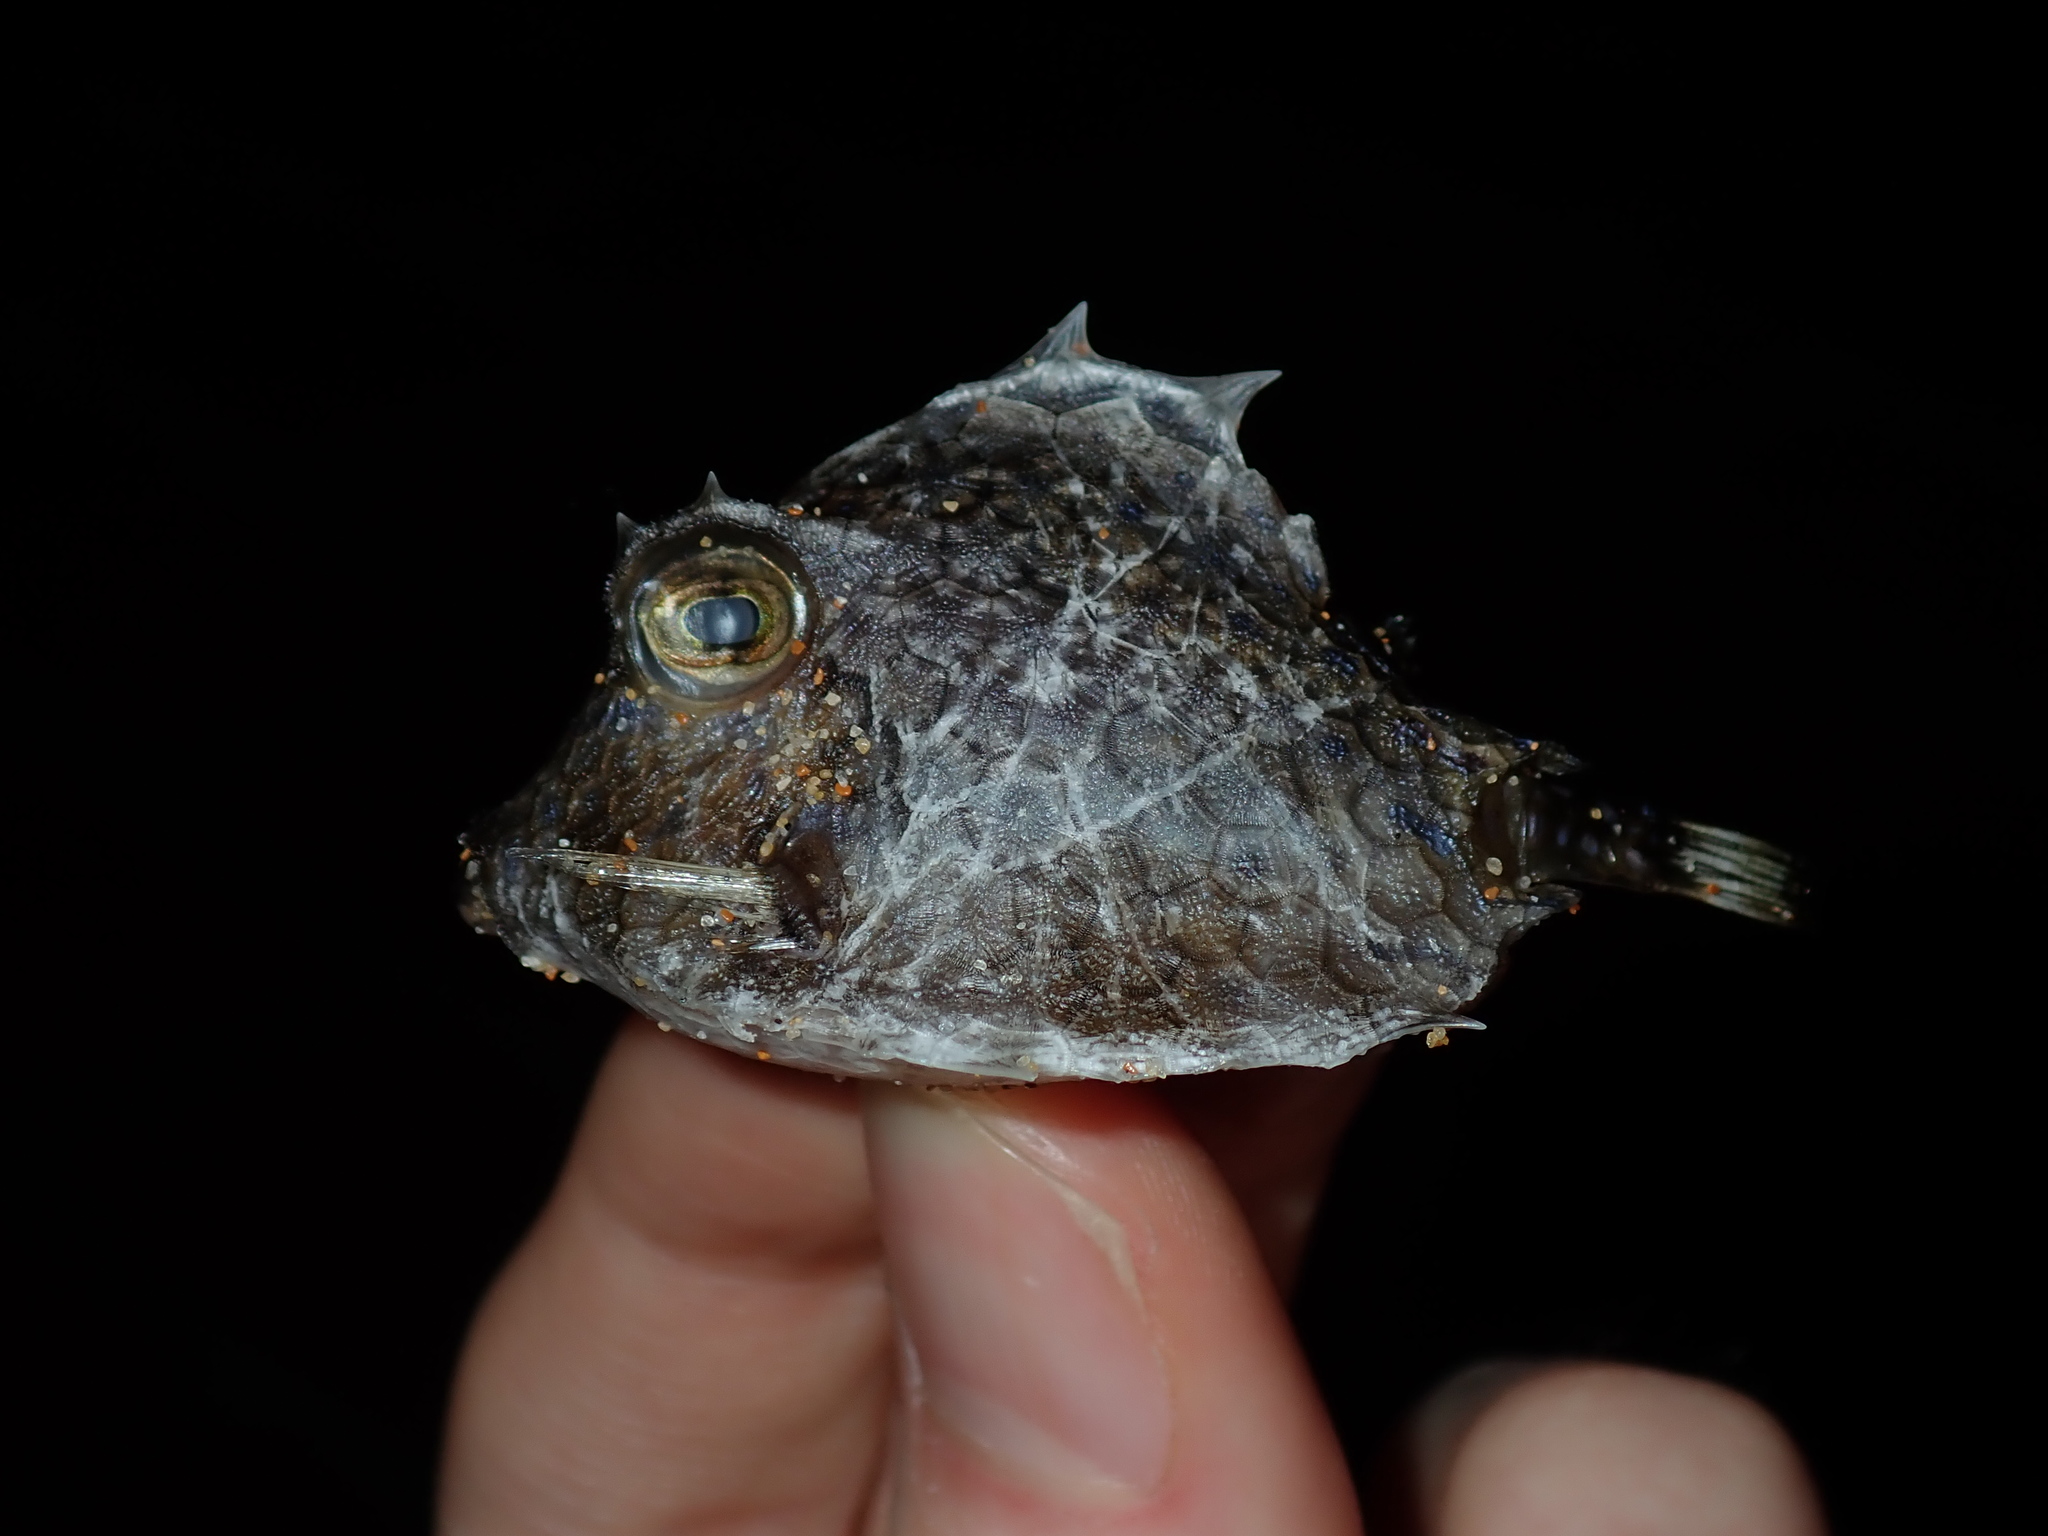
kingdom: Animalia
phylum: Chordata
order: Tetraodontiformes
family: Ostraciidae
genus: Tetrosomus
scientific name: Tetrosomus reipublicae
